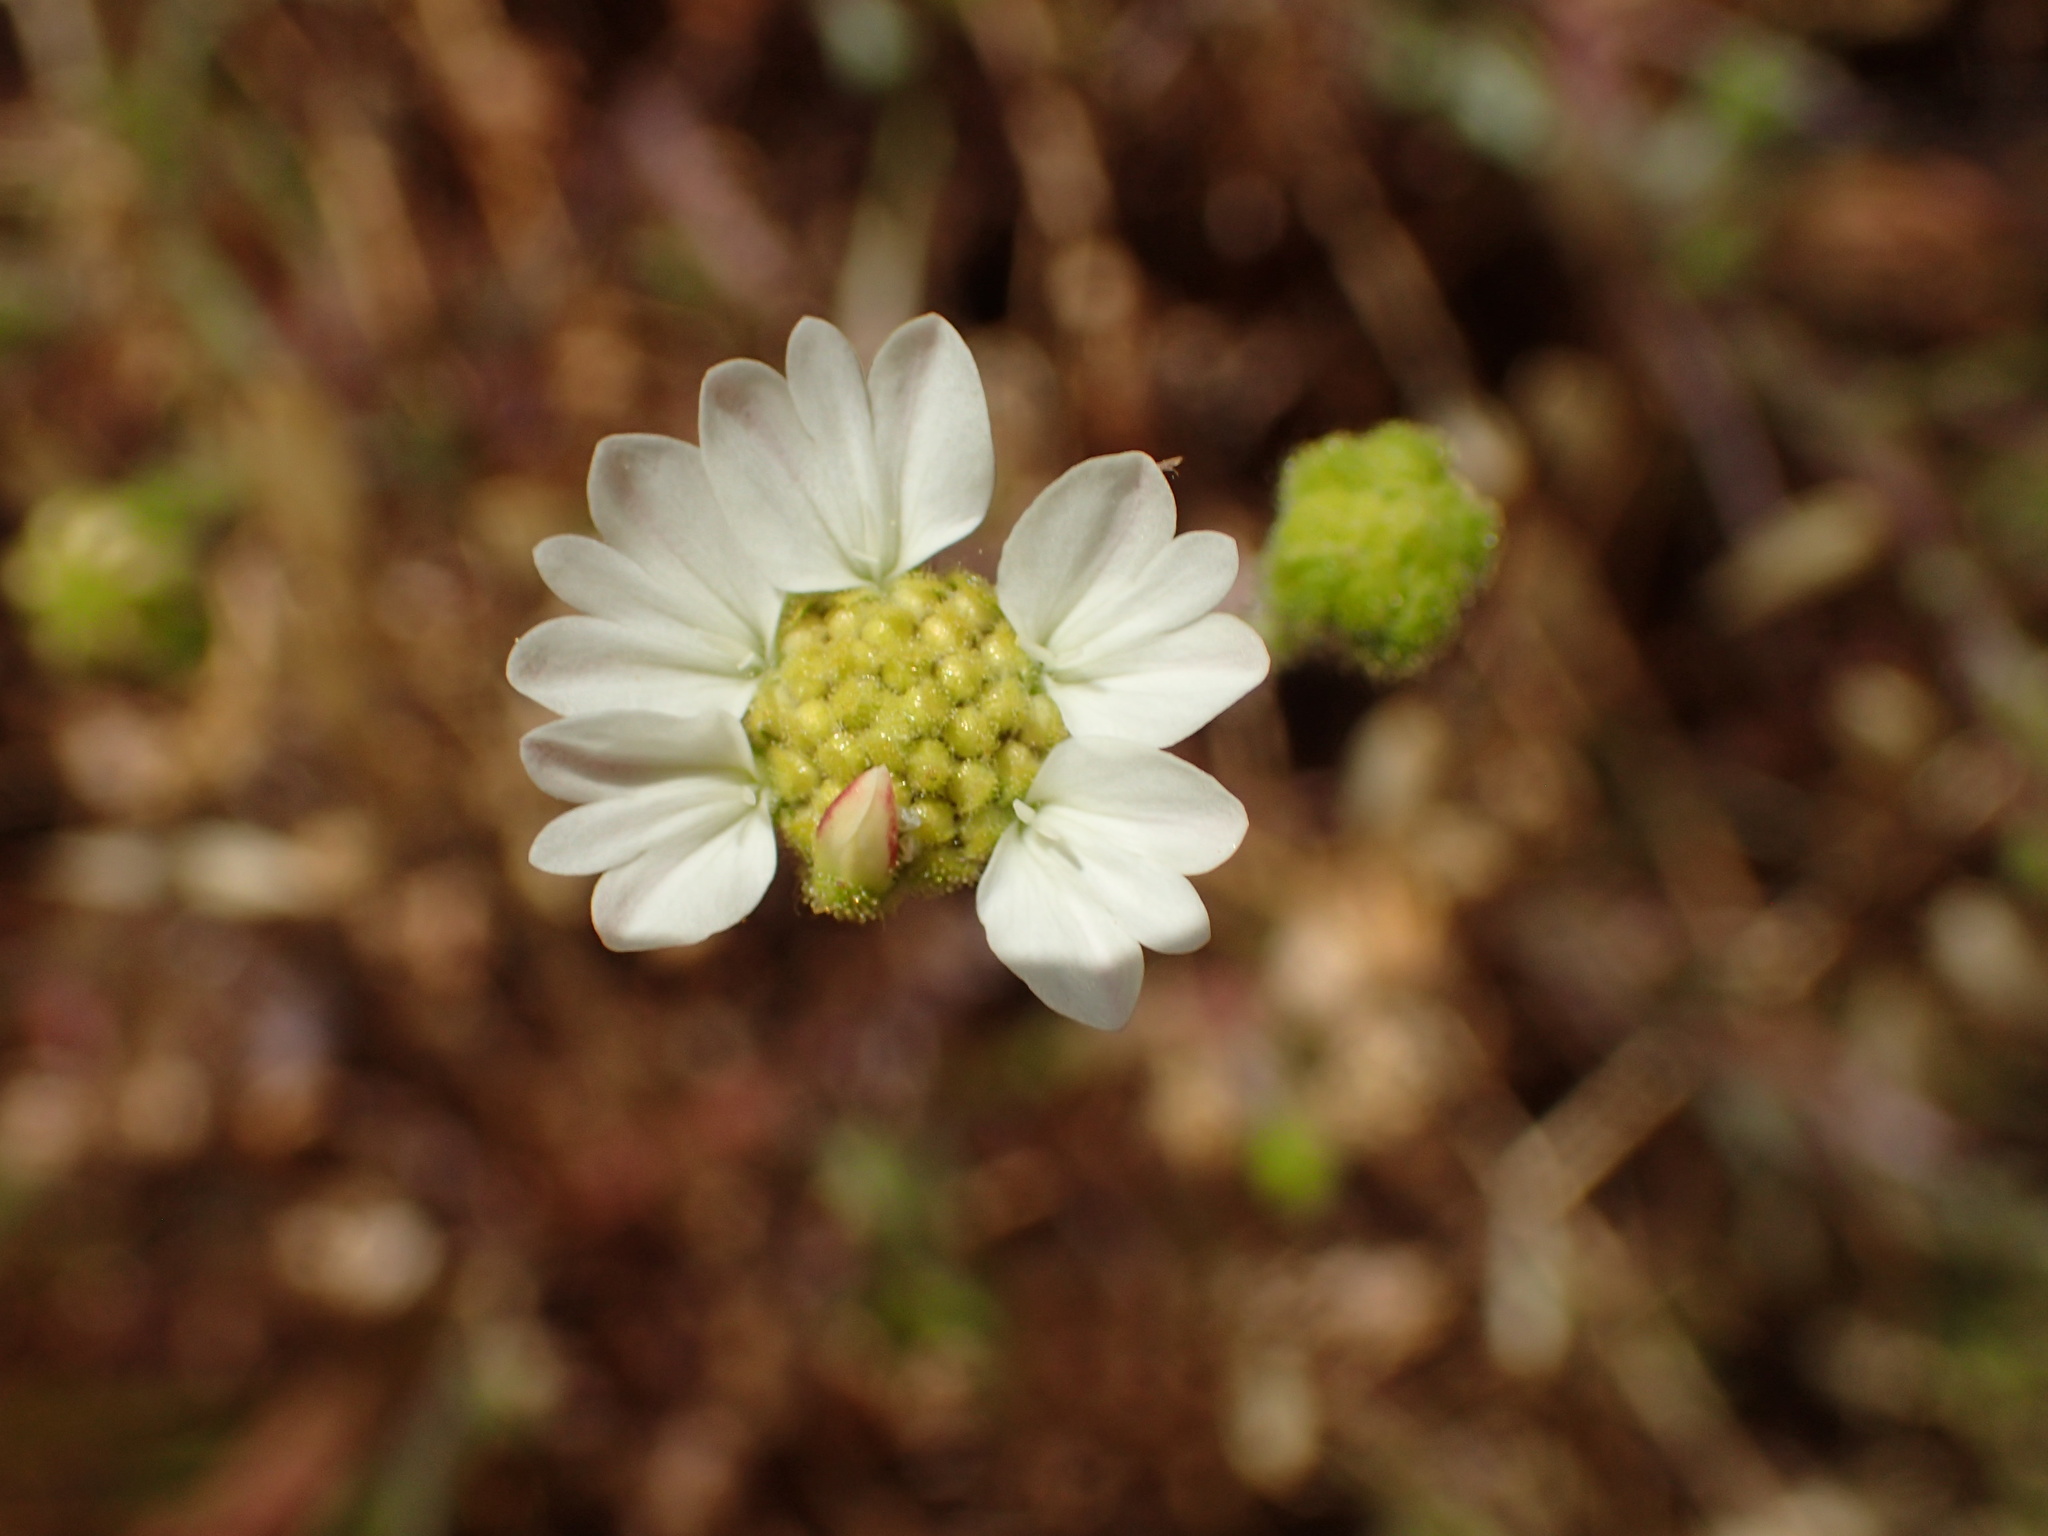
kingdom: Plantae
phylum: Tracheophyta
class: Magnoliopsida
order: Asterales
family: Asteraceae
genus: Hemizonia
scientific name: Hemizonia congesta
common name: Hayfield tarweed
